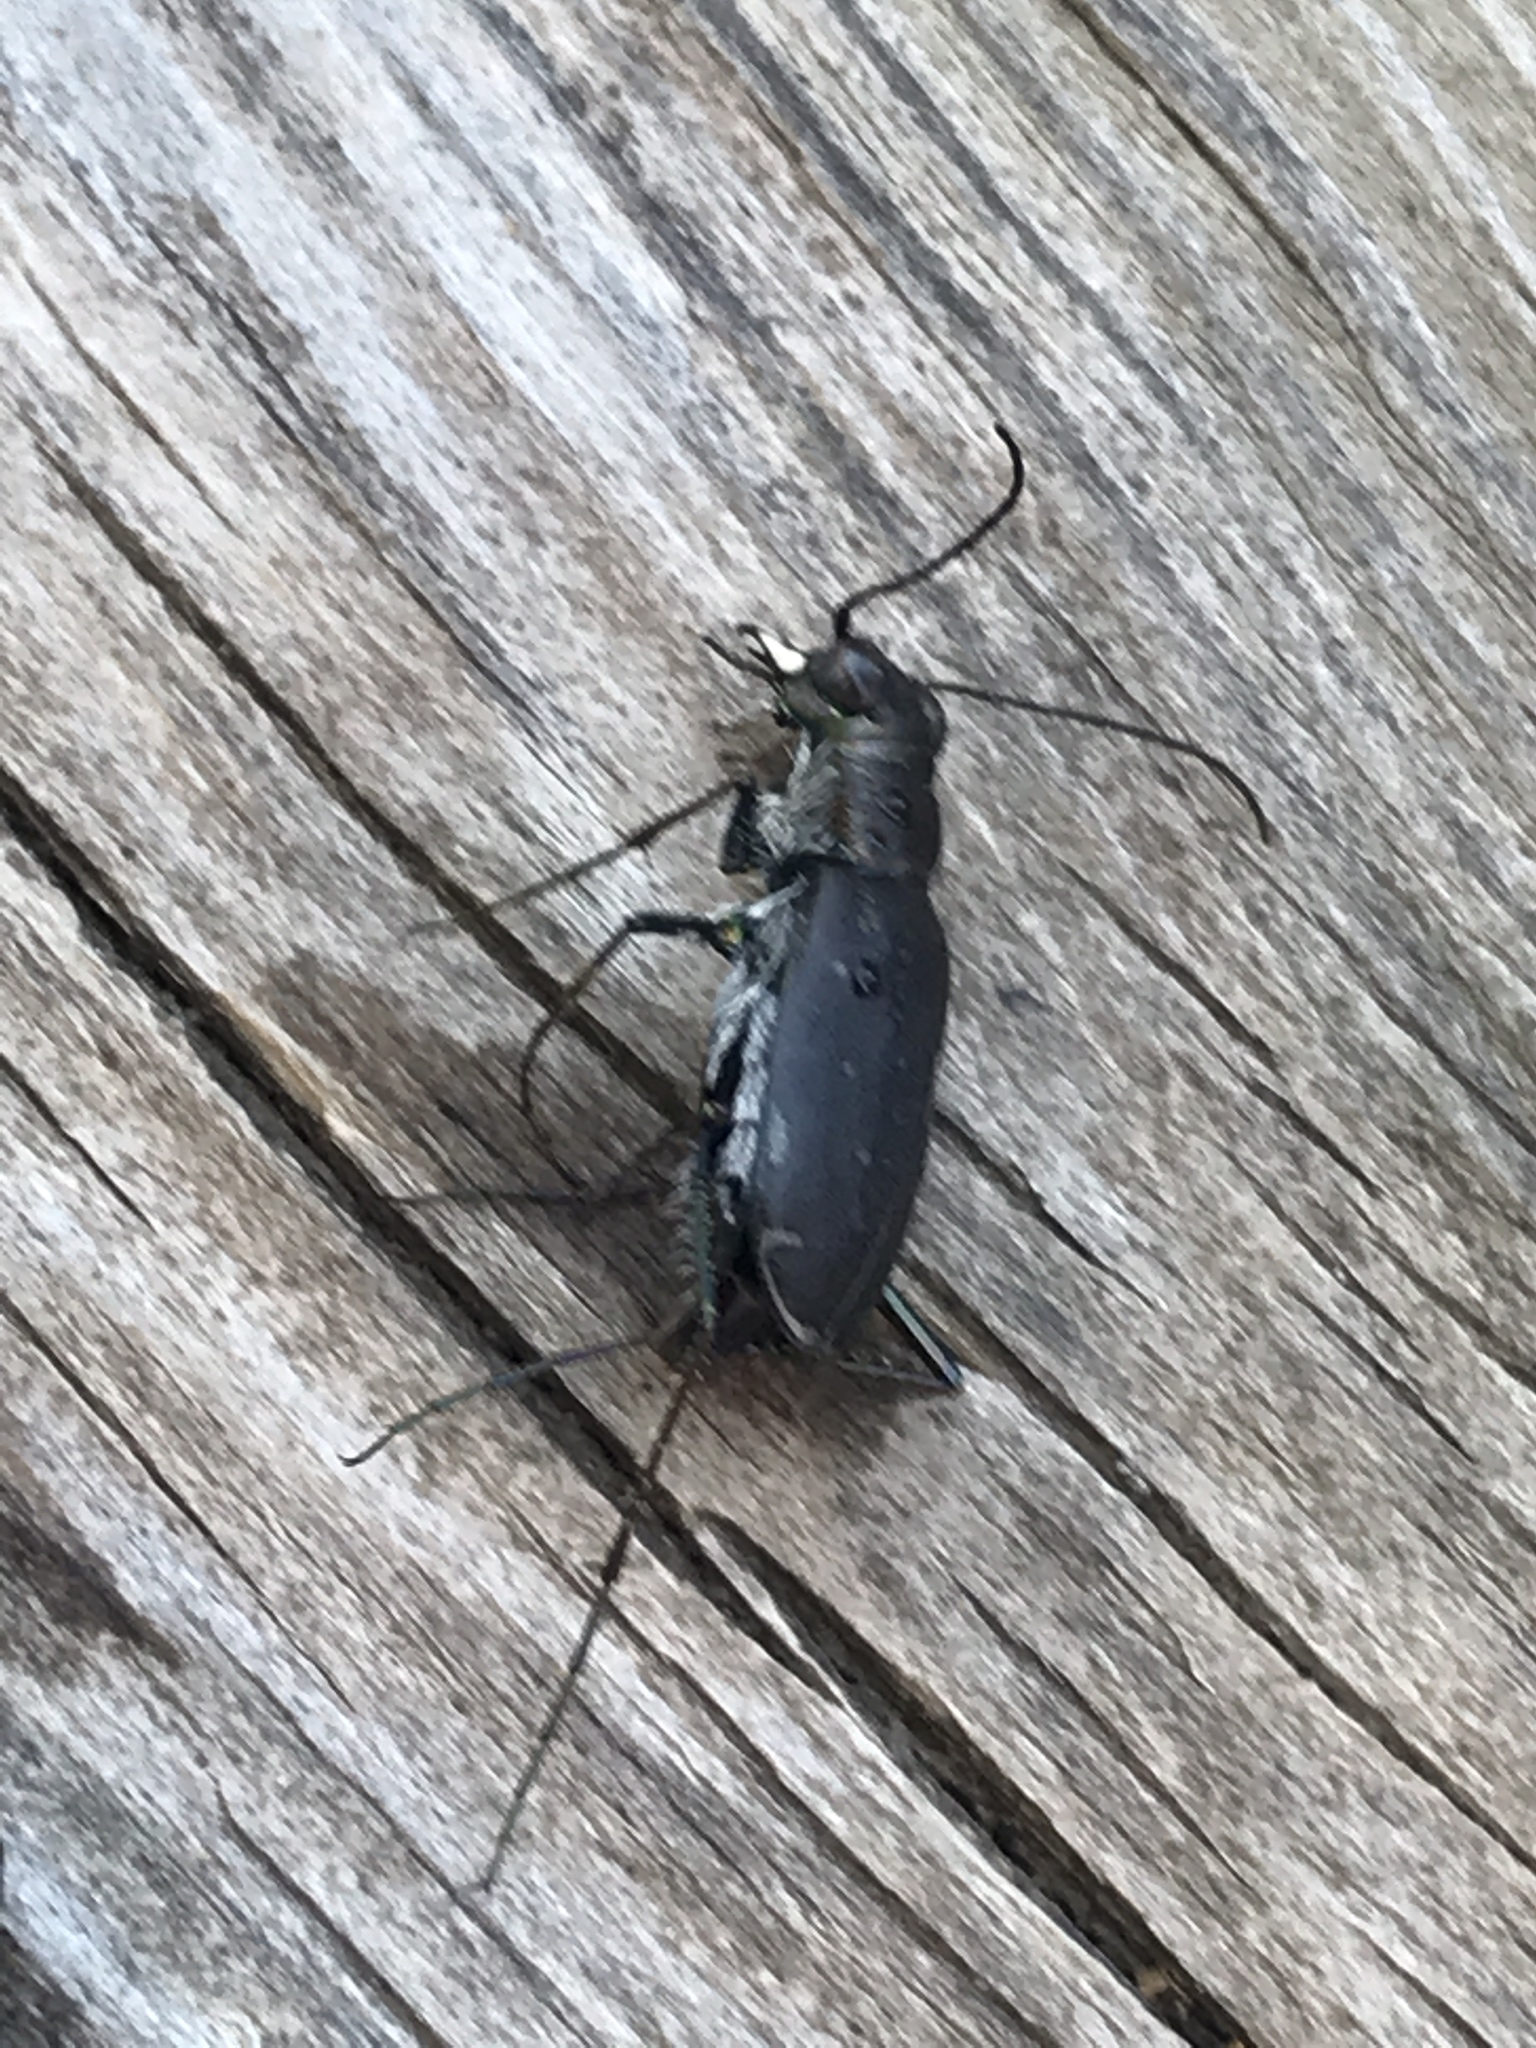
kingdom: Animalia
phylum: Arthropoda
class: Insecta
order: Coleoptera
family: Carabidae
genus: Cicindela
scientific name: Cicindela punctulata
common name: Punctured tiger beetle
